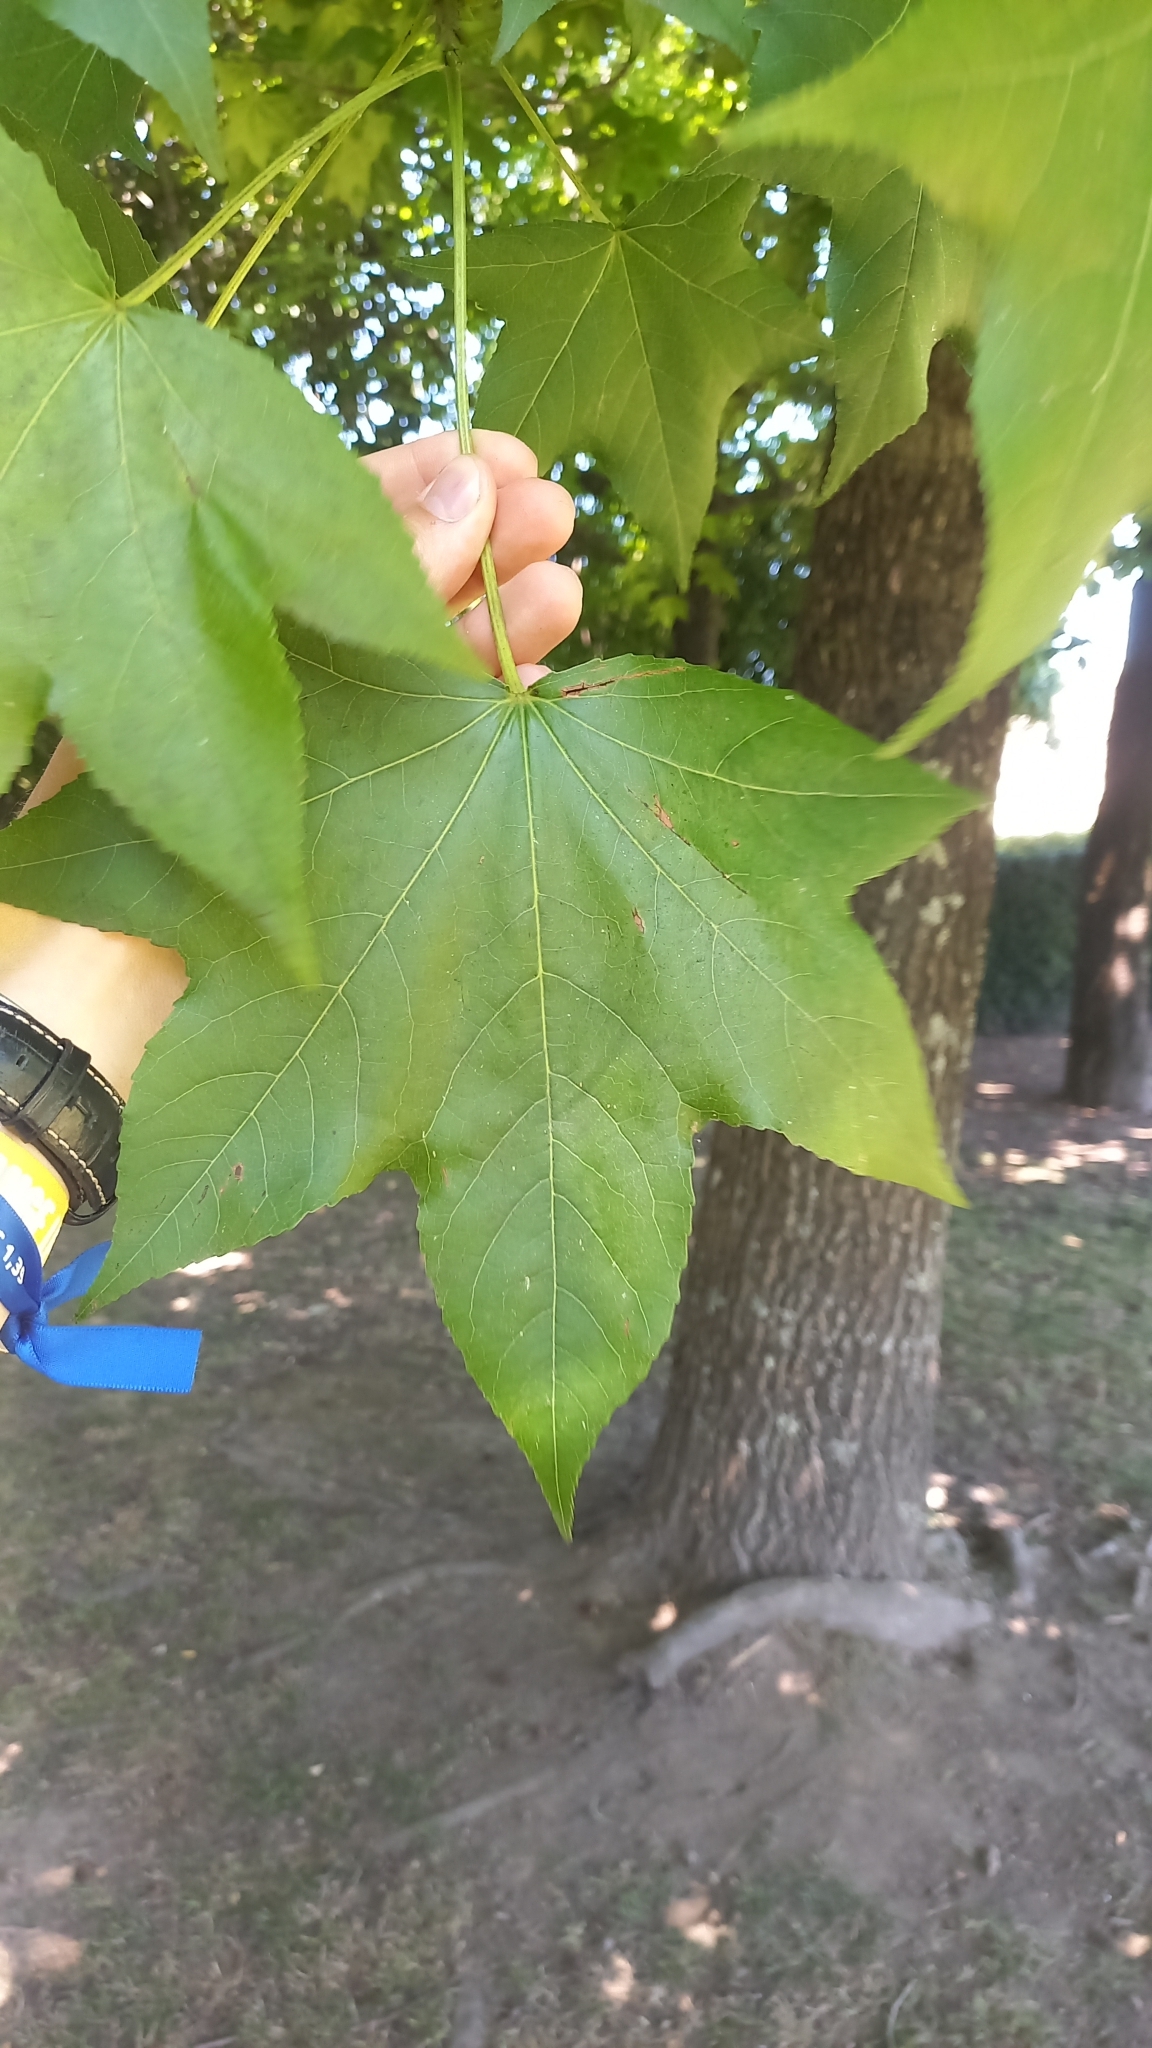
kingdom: Plantae
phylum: Tracheophyta
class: Magnoliopsida
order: Saxifragales
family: Altingiaceae
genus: Liquidambar
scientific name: Liquidambar styraciflua
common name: Sweet gum
